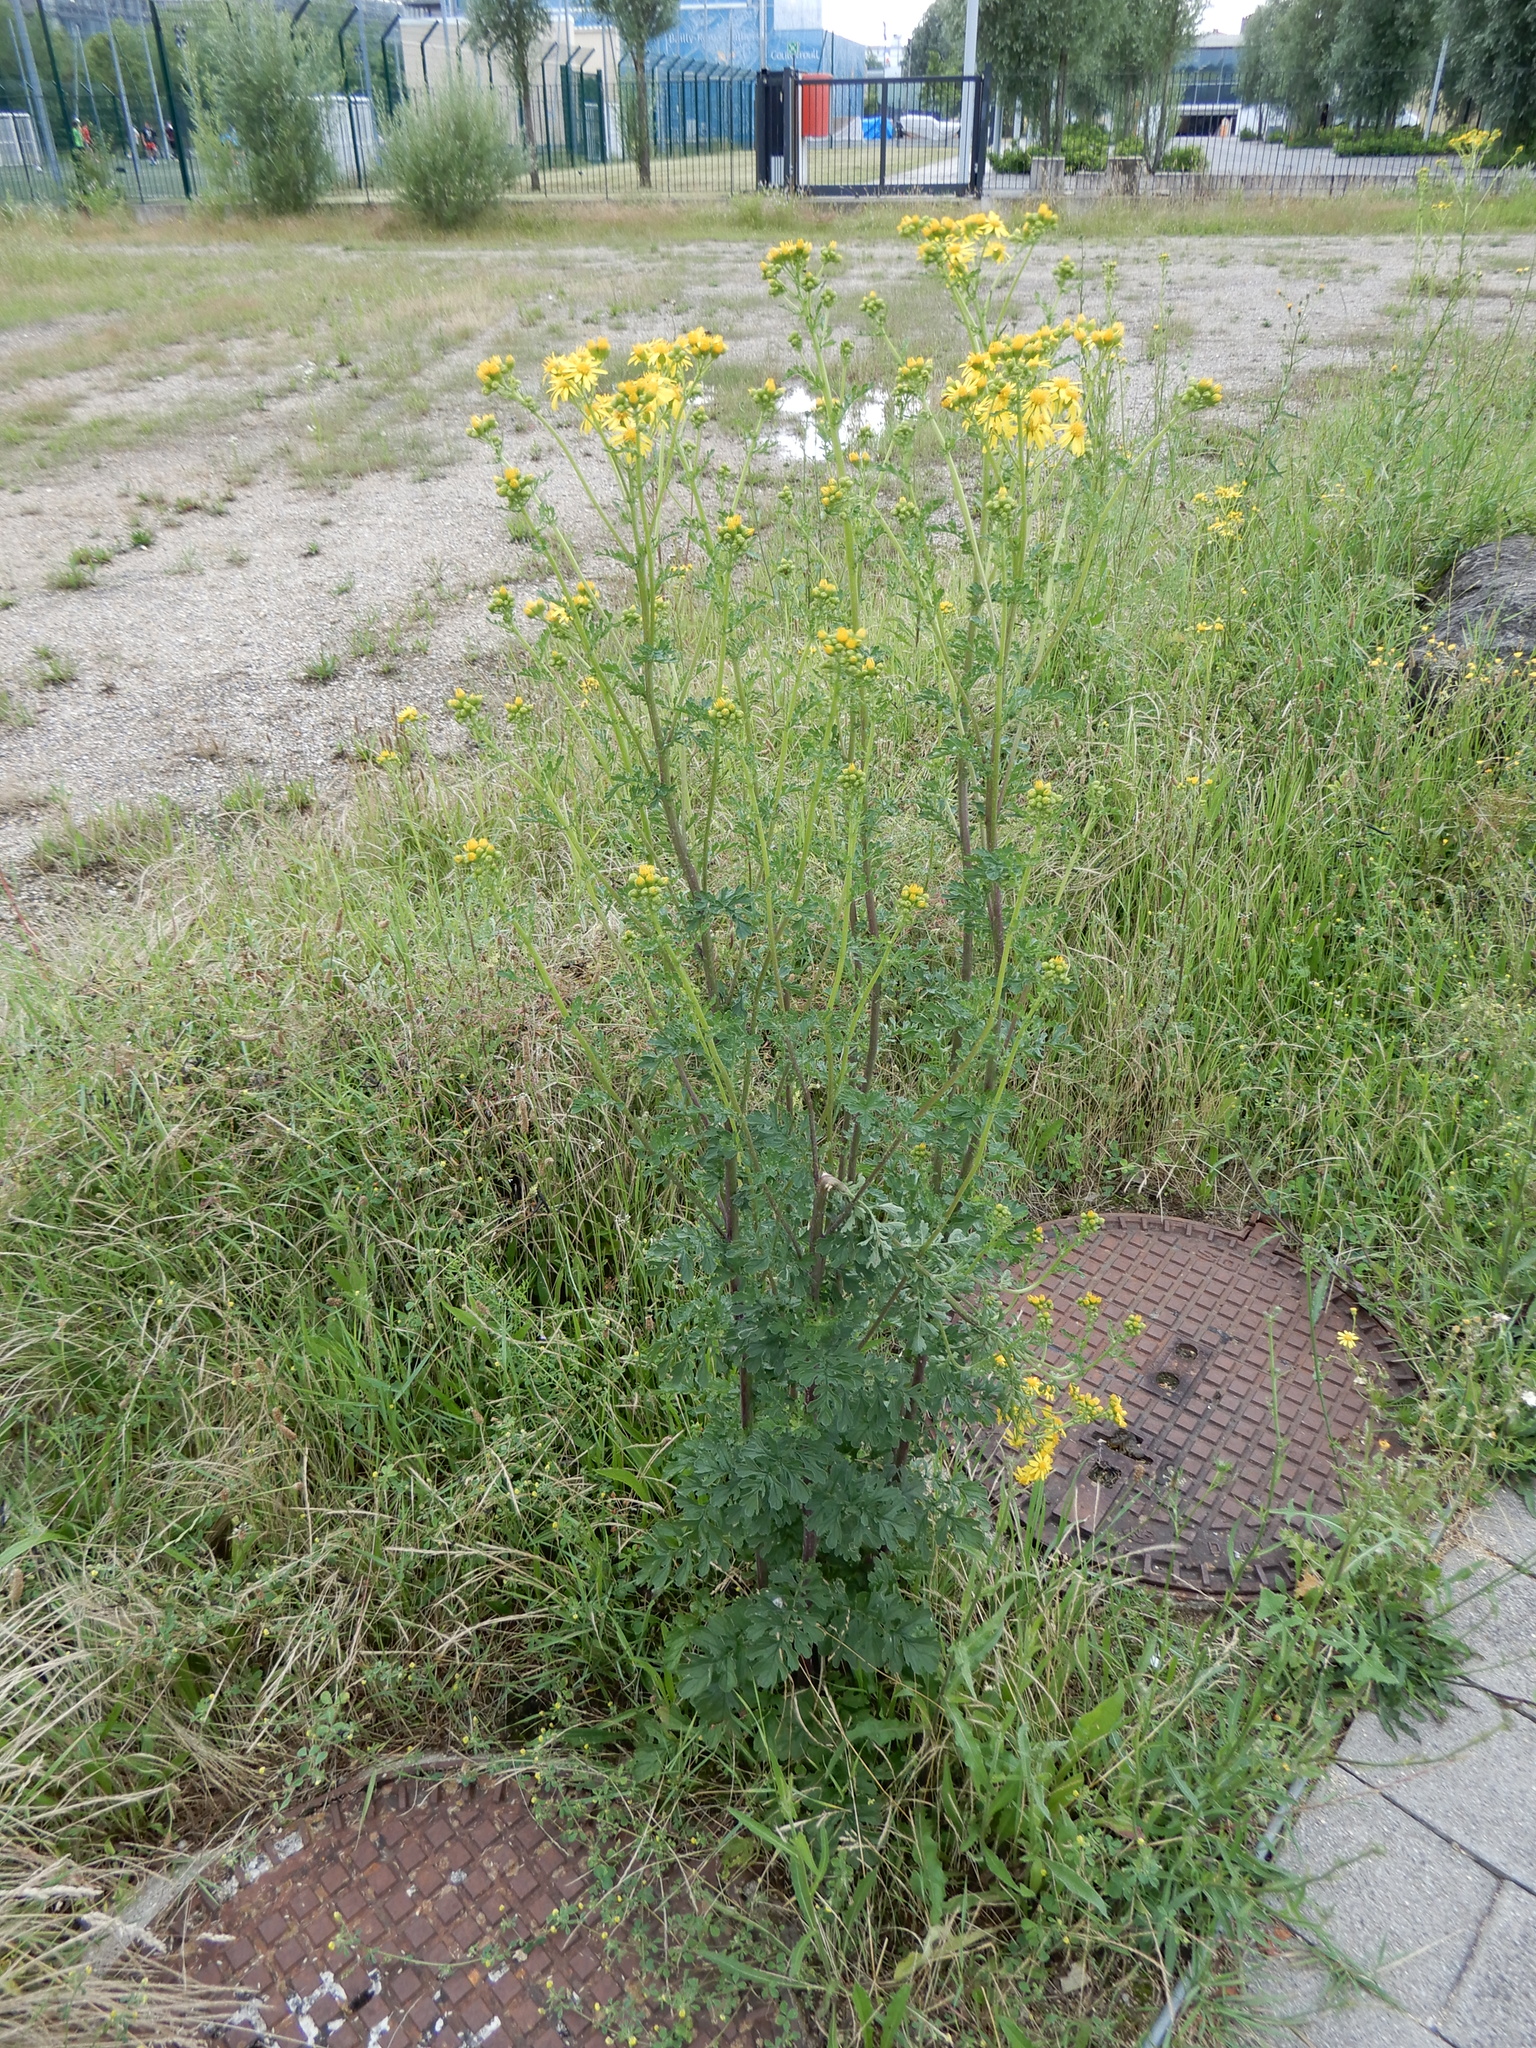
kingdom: Plantae
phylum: Tracheophyta
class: Magnoliopsida
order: Asterales
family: Asteraceae
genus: Jacobaea
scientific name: Jacobaea vulgaris
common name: Stinking willie
